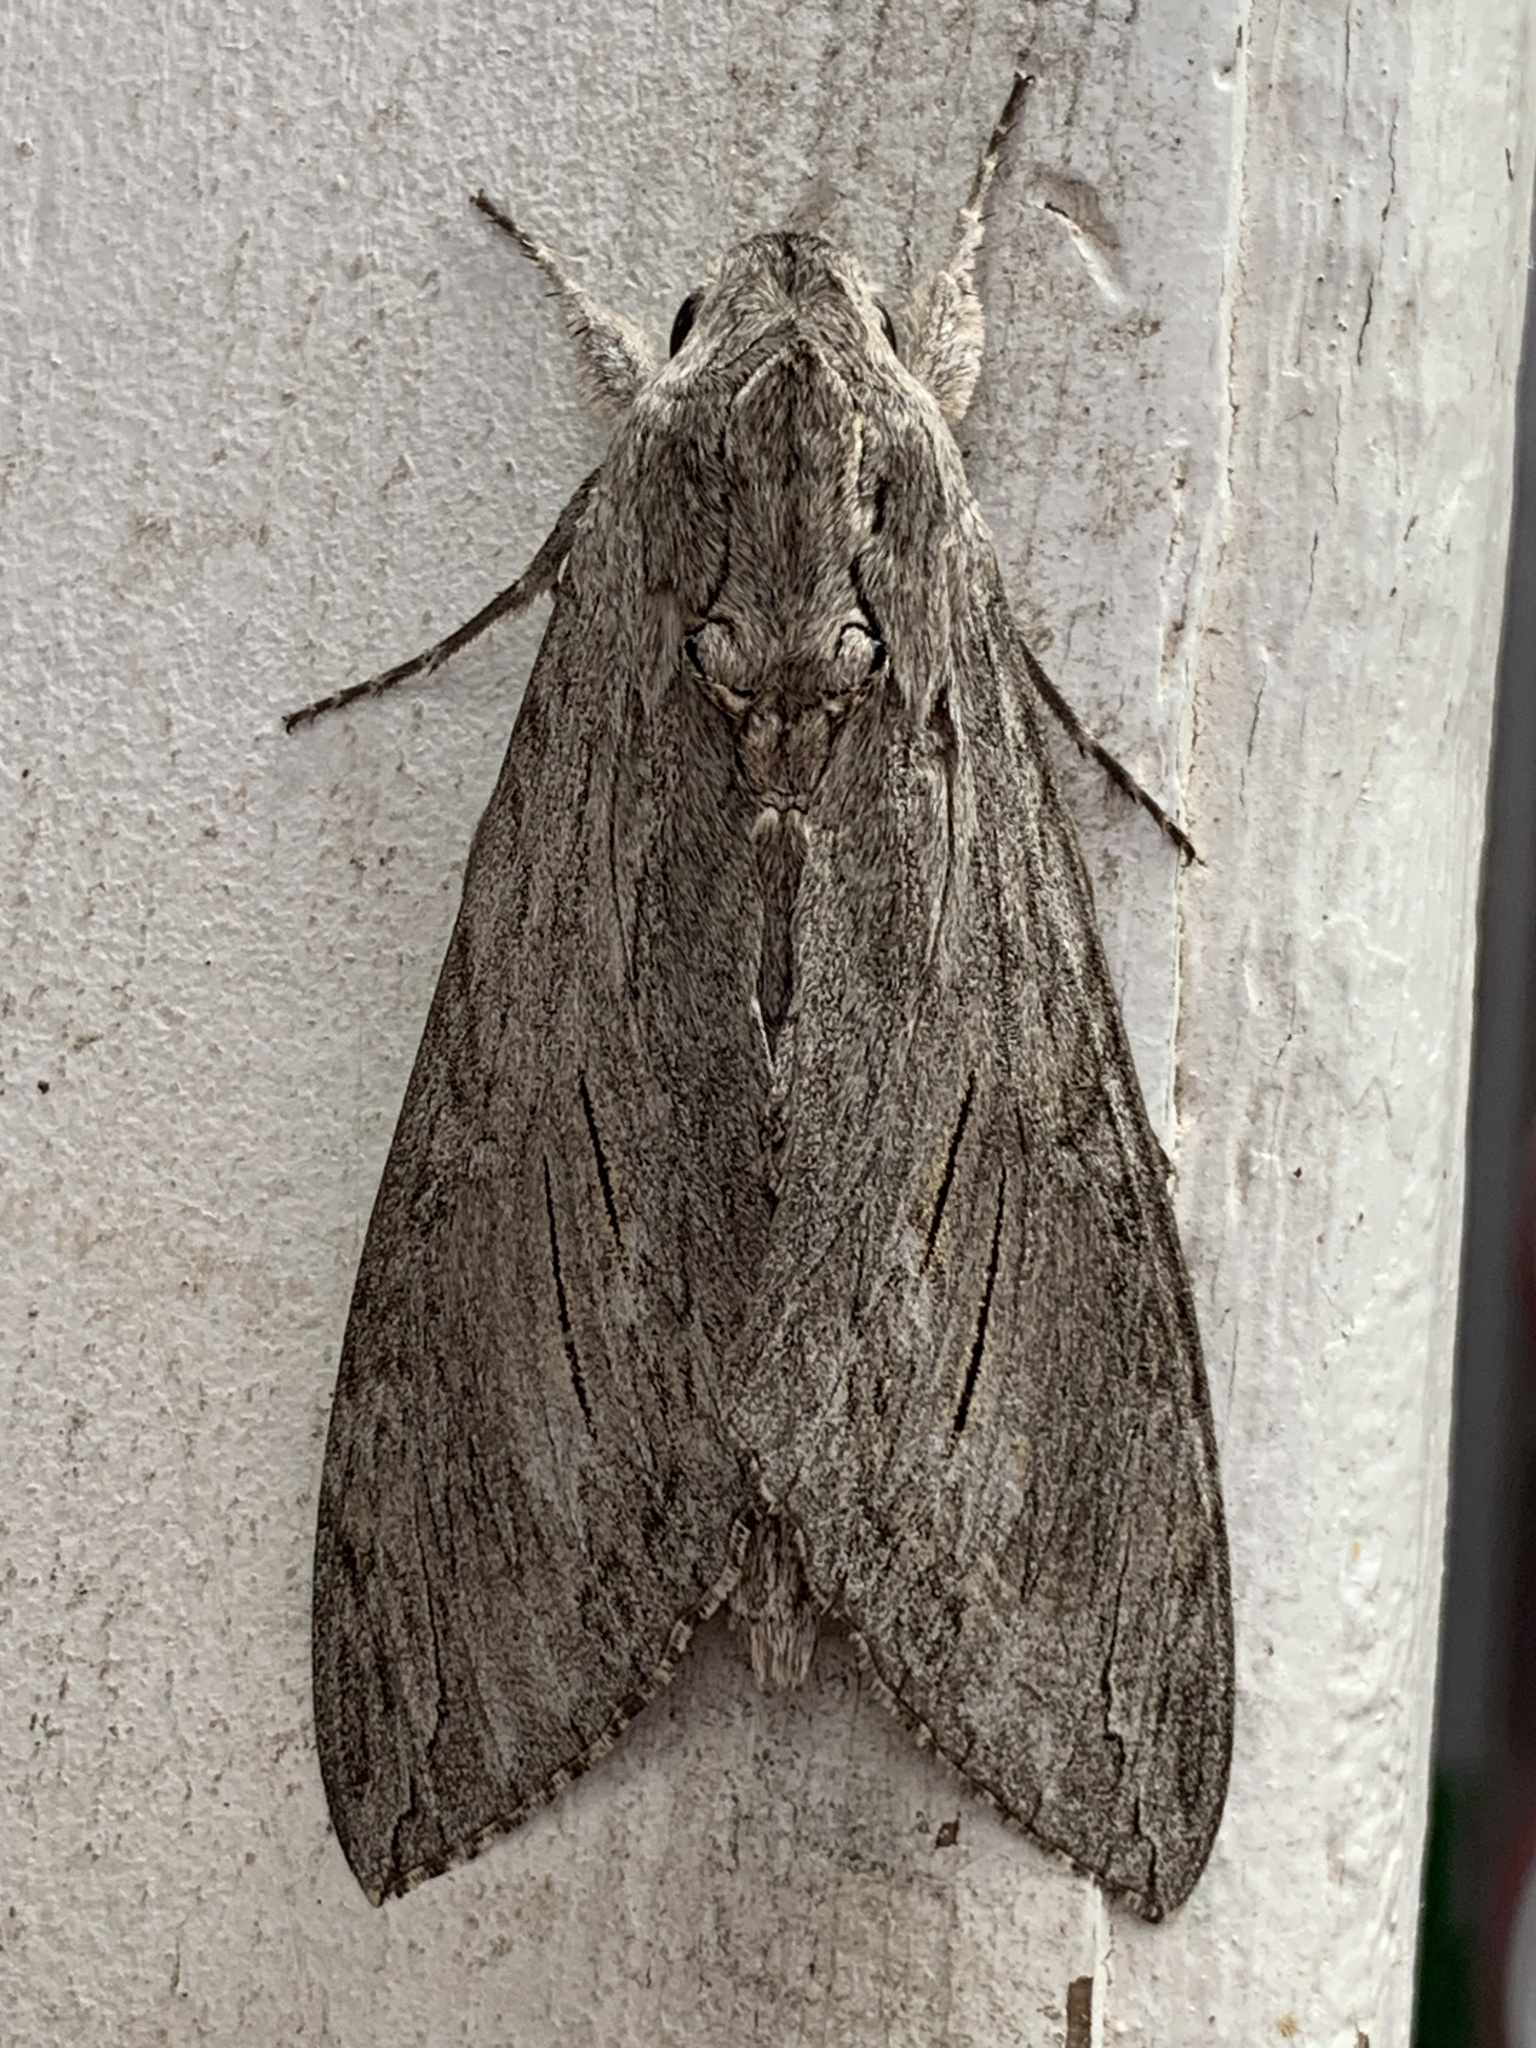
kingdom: Animalia
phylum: Arthropoda
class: Insecta
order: Lepidoptera
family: Sphingidae
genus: Agrius
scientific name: Agrius convolvuli
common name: Convolvulus hawkmoth
